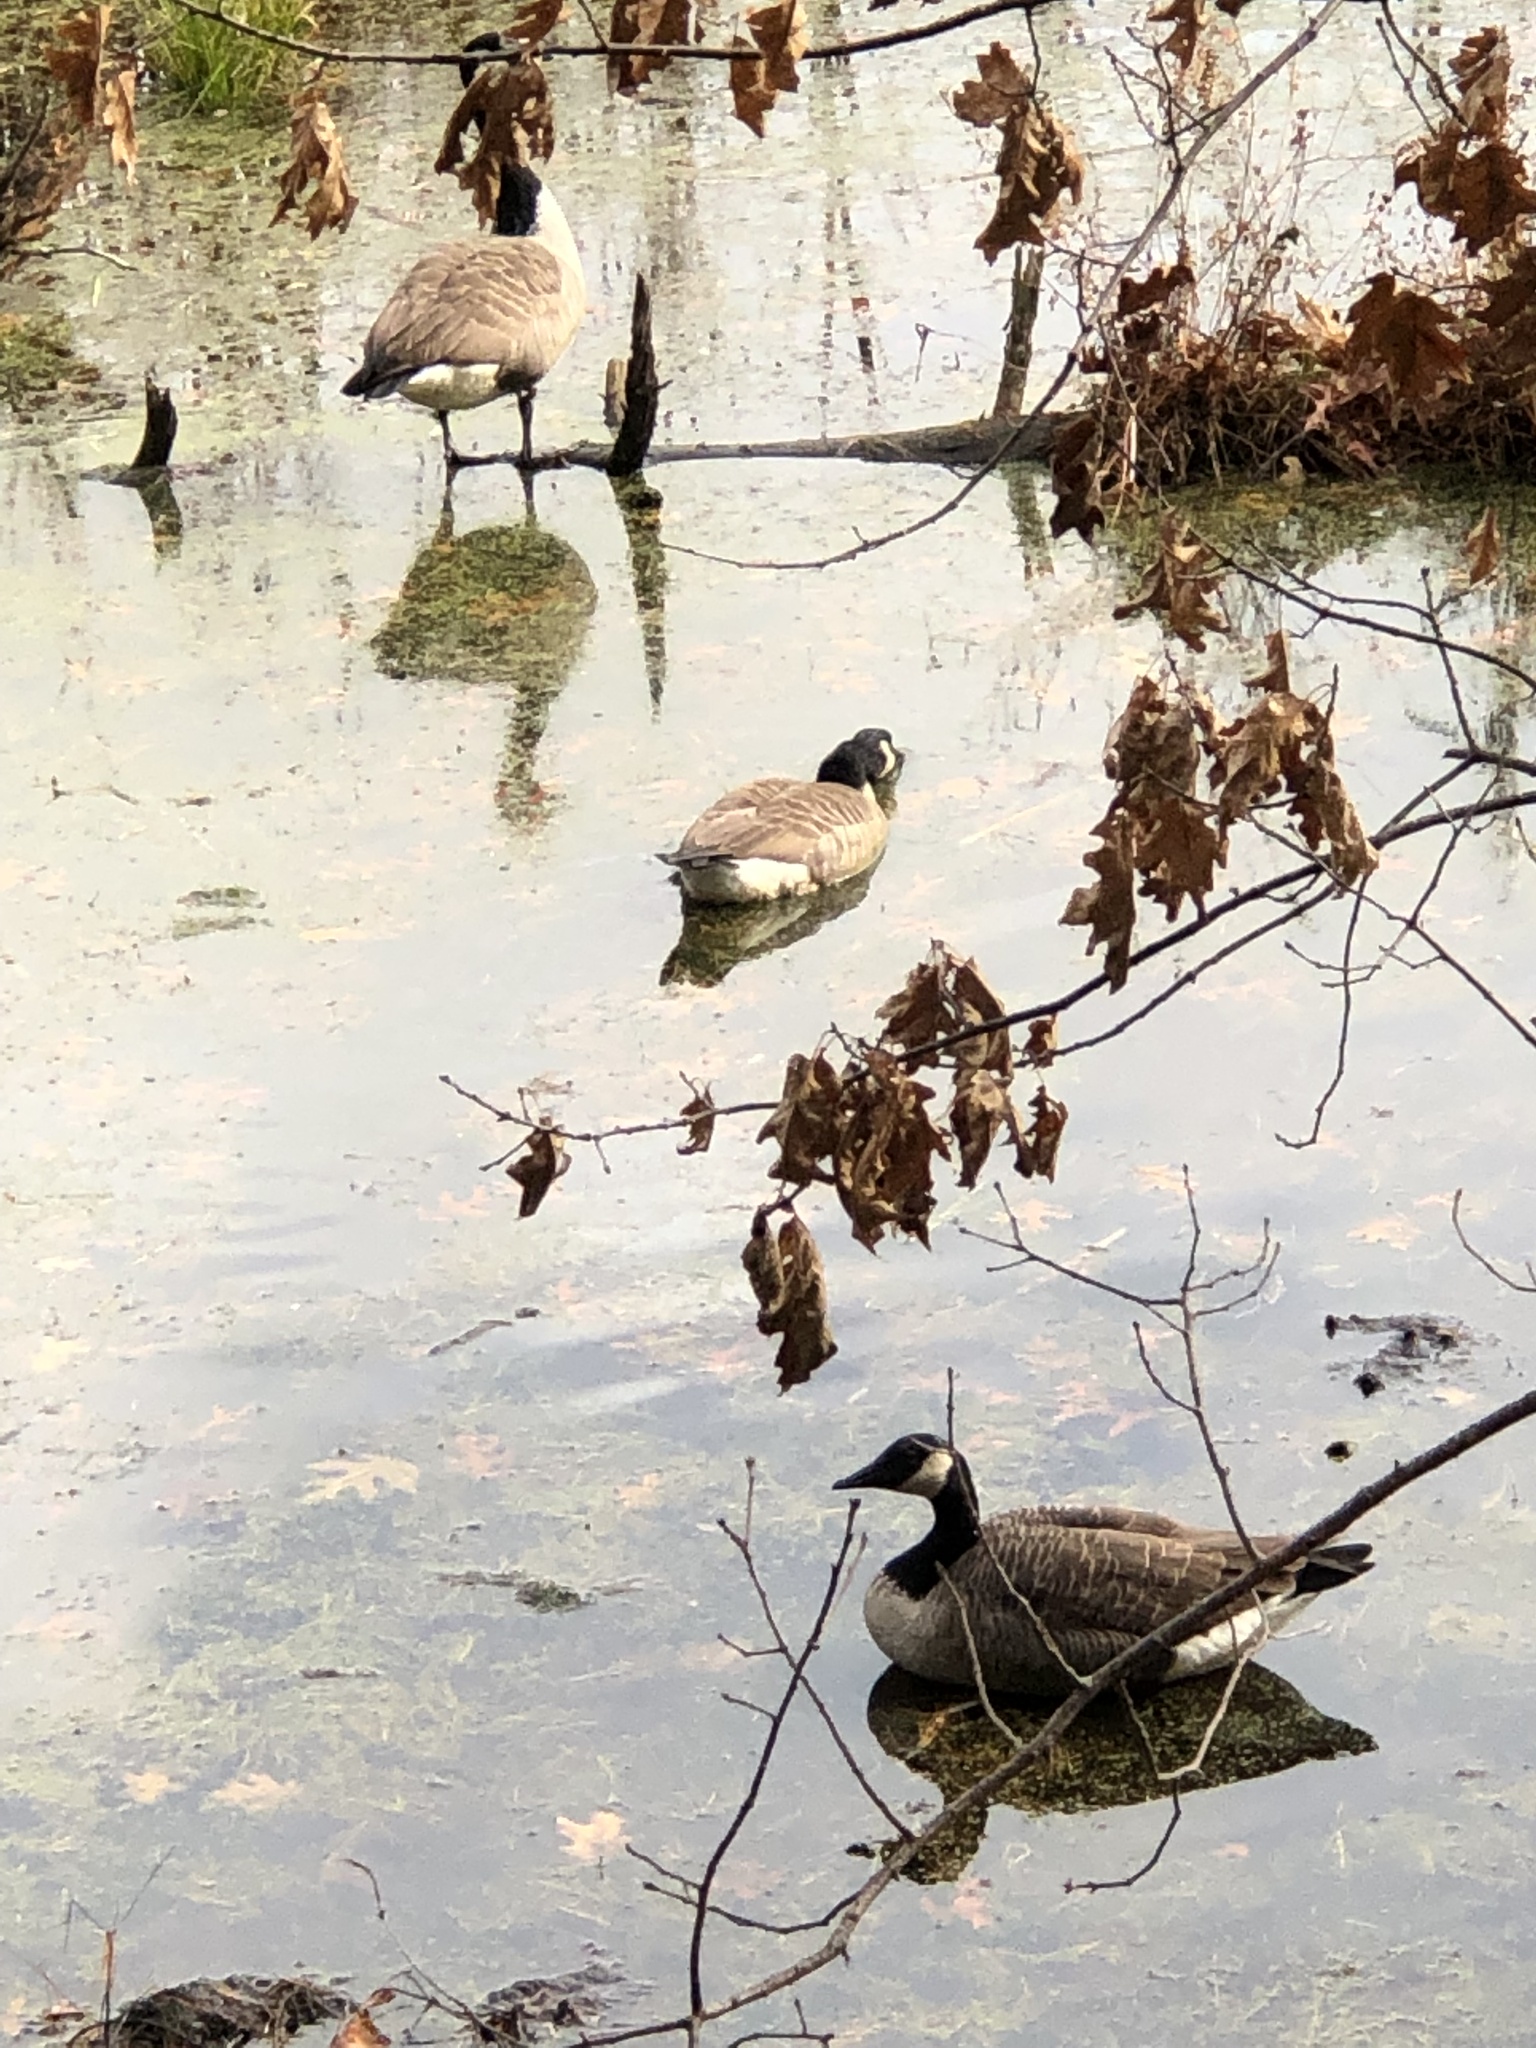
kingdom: Animalia
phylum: Chordata
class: Aves
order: Anseriformes
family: Anatidae
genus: Branta
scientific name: Branta canadensis
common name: Canada goose
